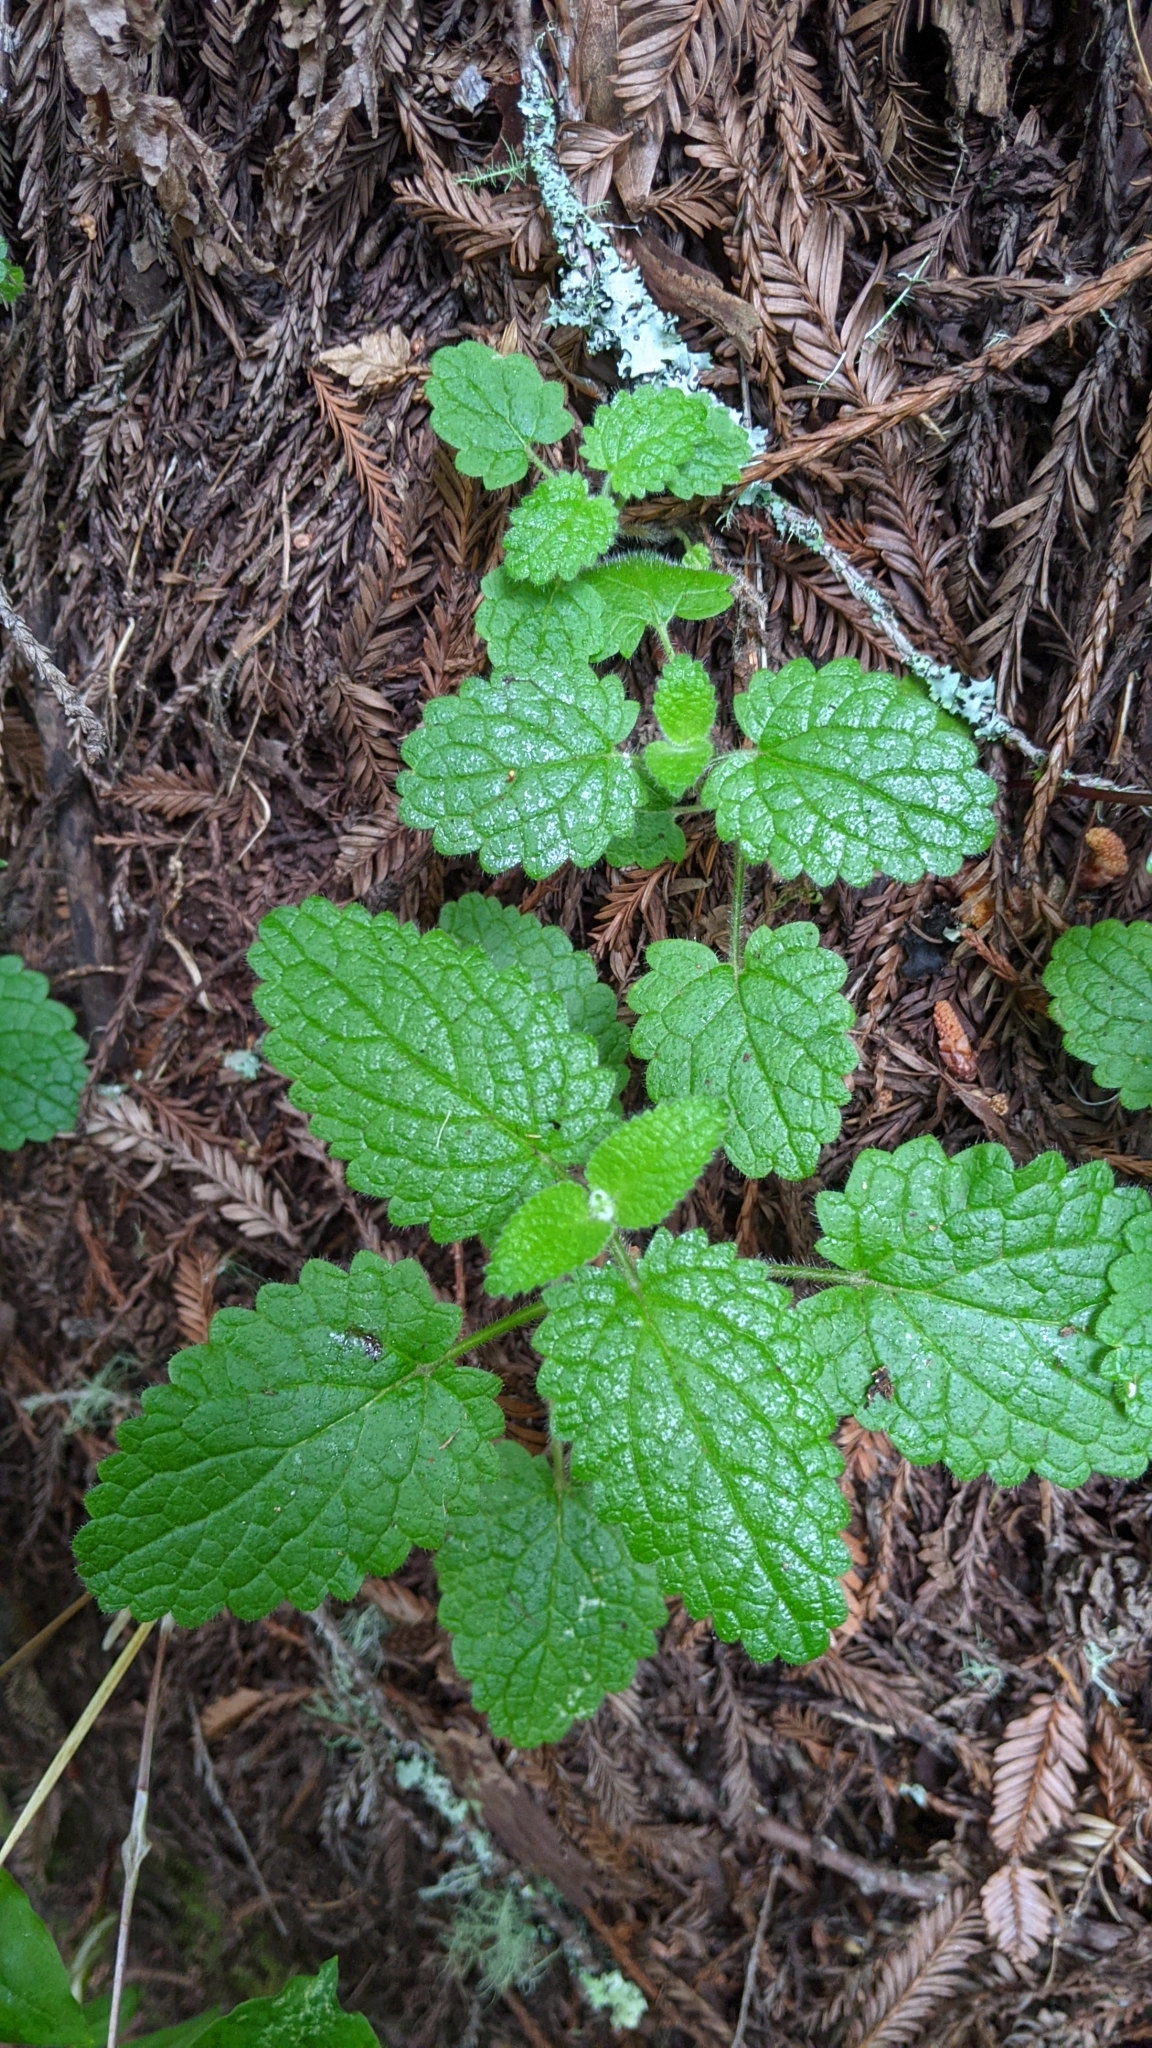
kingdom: Plantae
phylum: Tracheophyta
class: Magnoliopsida
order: Lamiales
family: Lamiaceae
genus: Stachys
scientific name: Stachys
